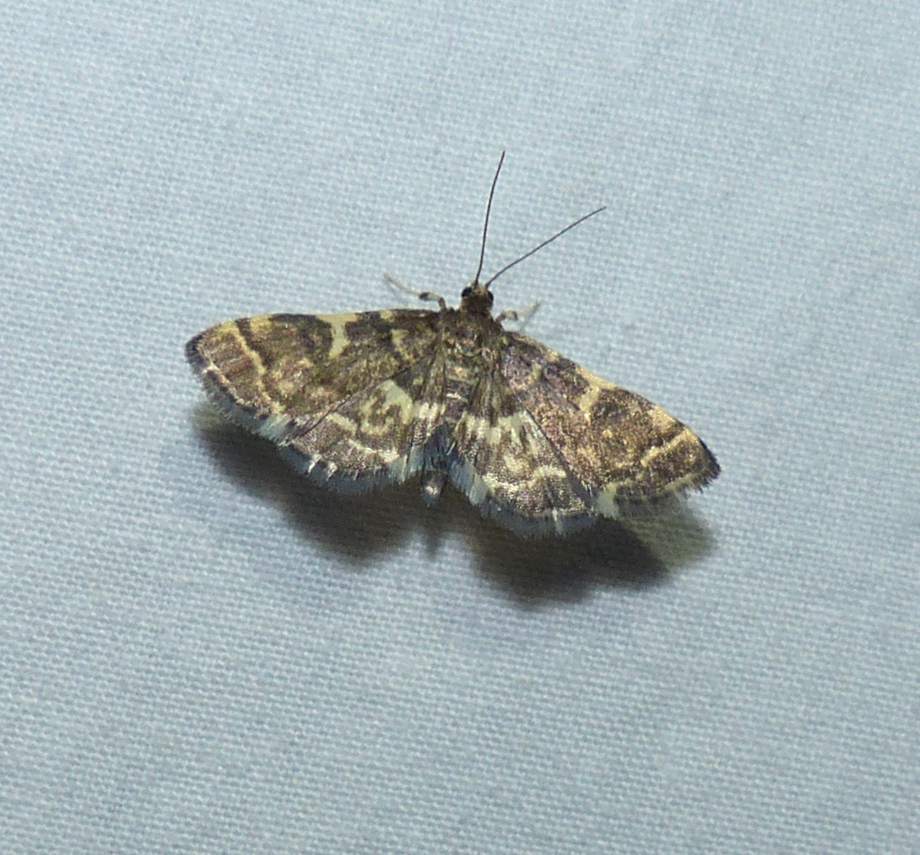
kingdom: Animalia
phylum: Arthropoda
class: Insecta
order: Lepidoptera
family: Crambidae
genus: Anageshna
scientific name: Anageshna primordialis
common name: Yellow-spotted webworm moth
